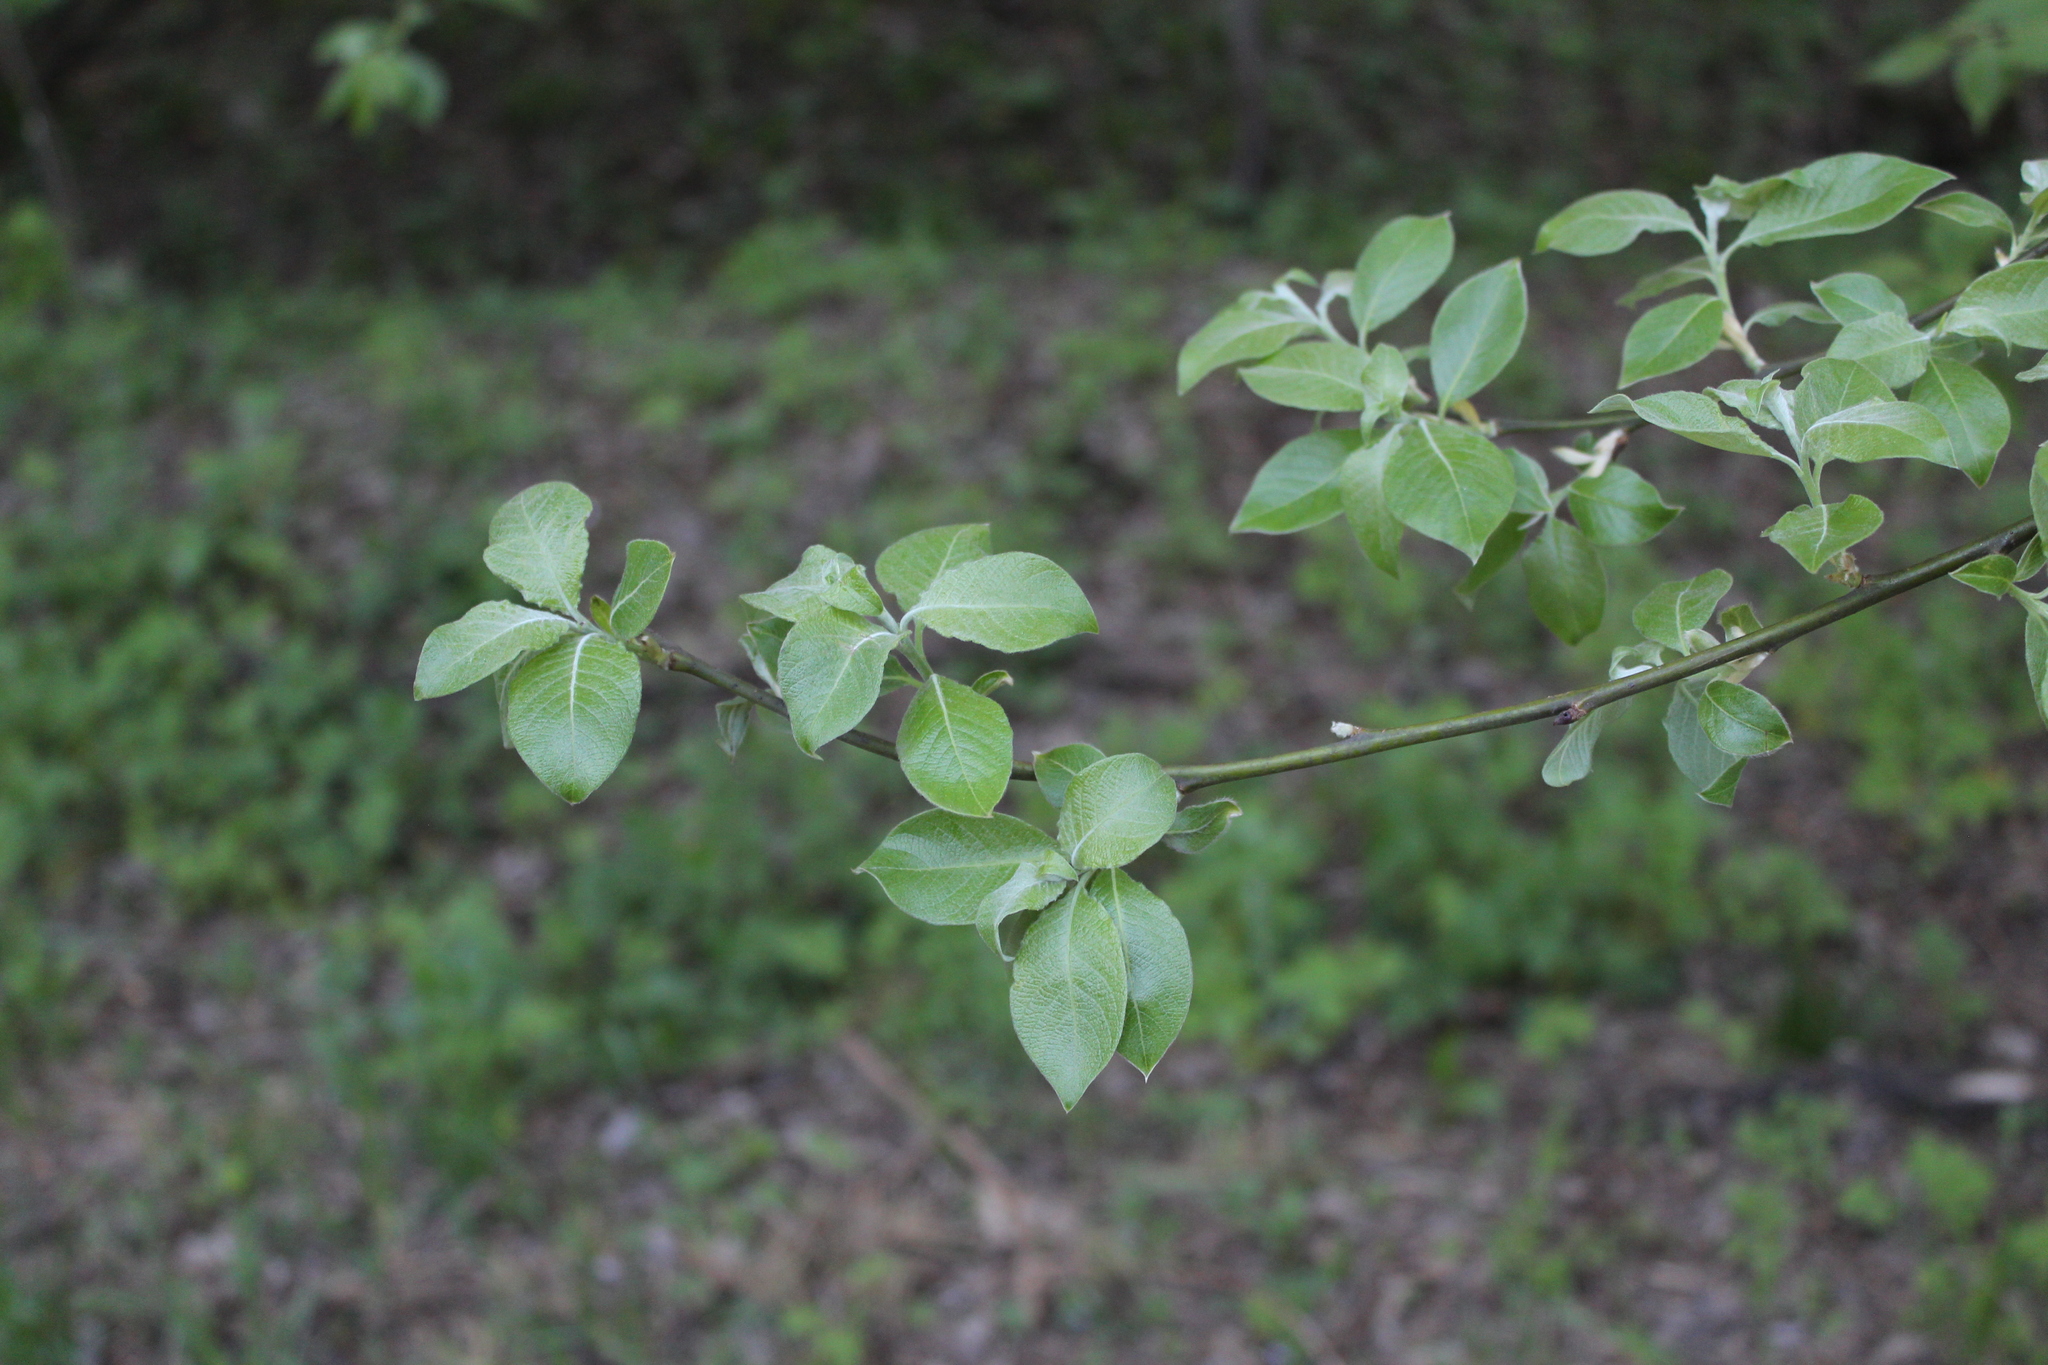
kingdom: Plantae
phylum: Tracheophyta
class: Magnoliopsida
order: Malpighiales
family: Salicaceae
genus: Salix
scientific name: Salix caprea
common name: Goat willow
